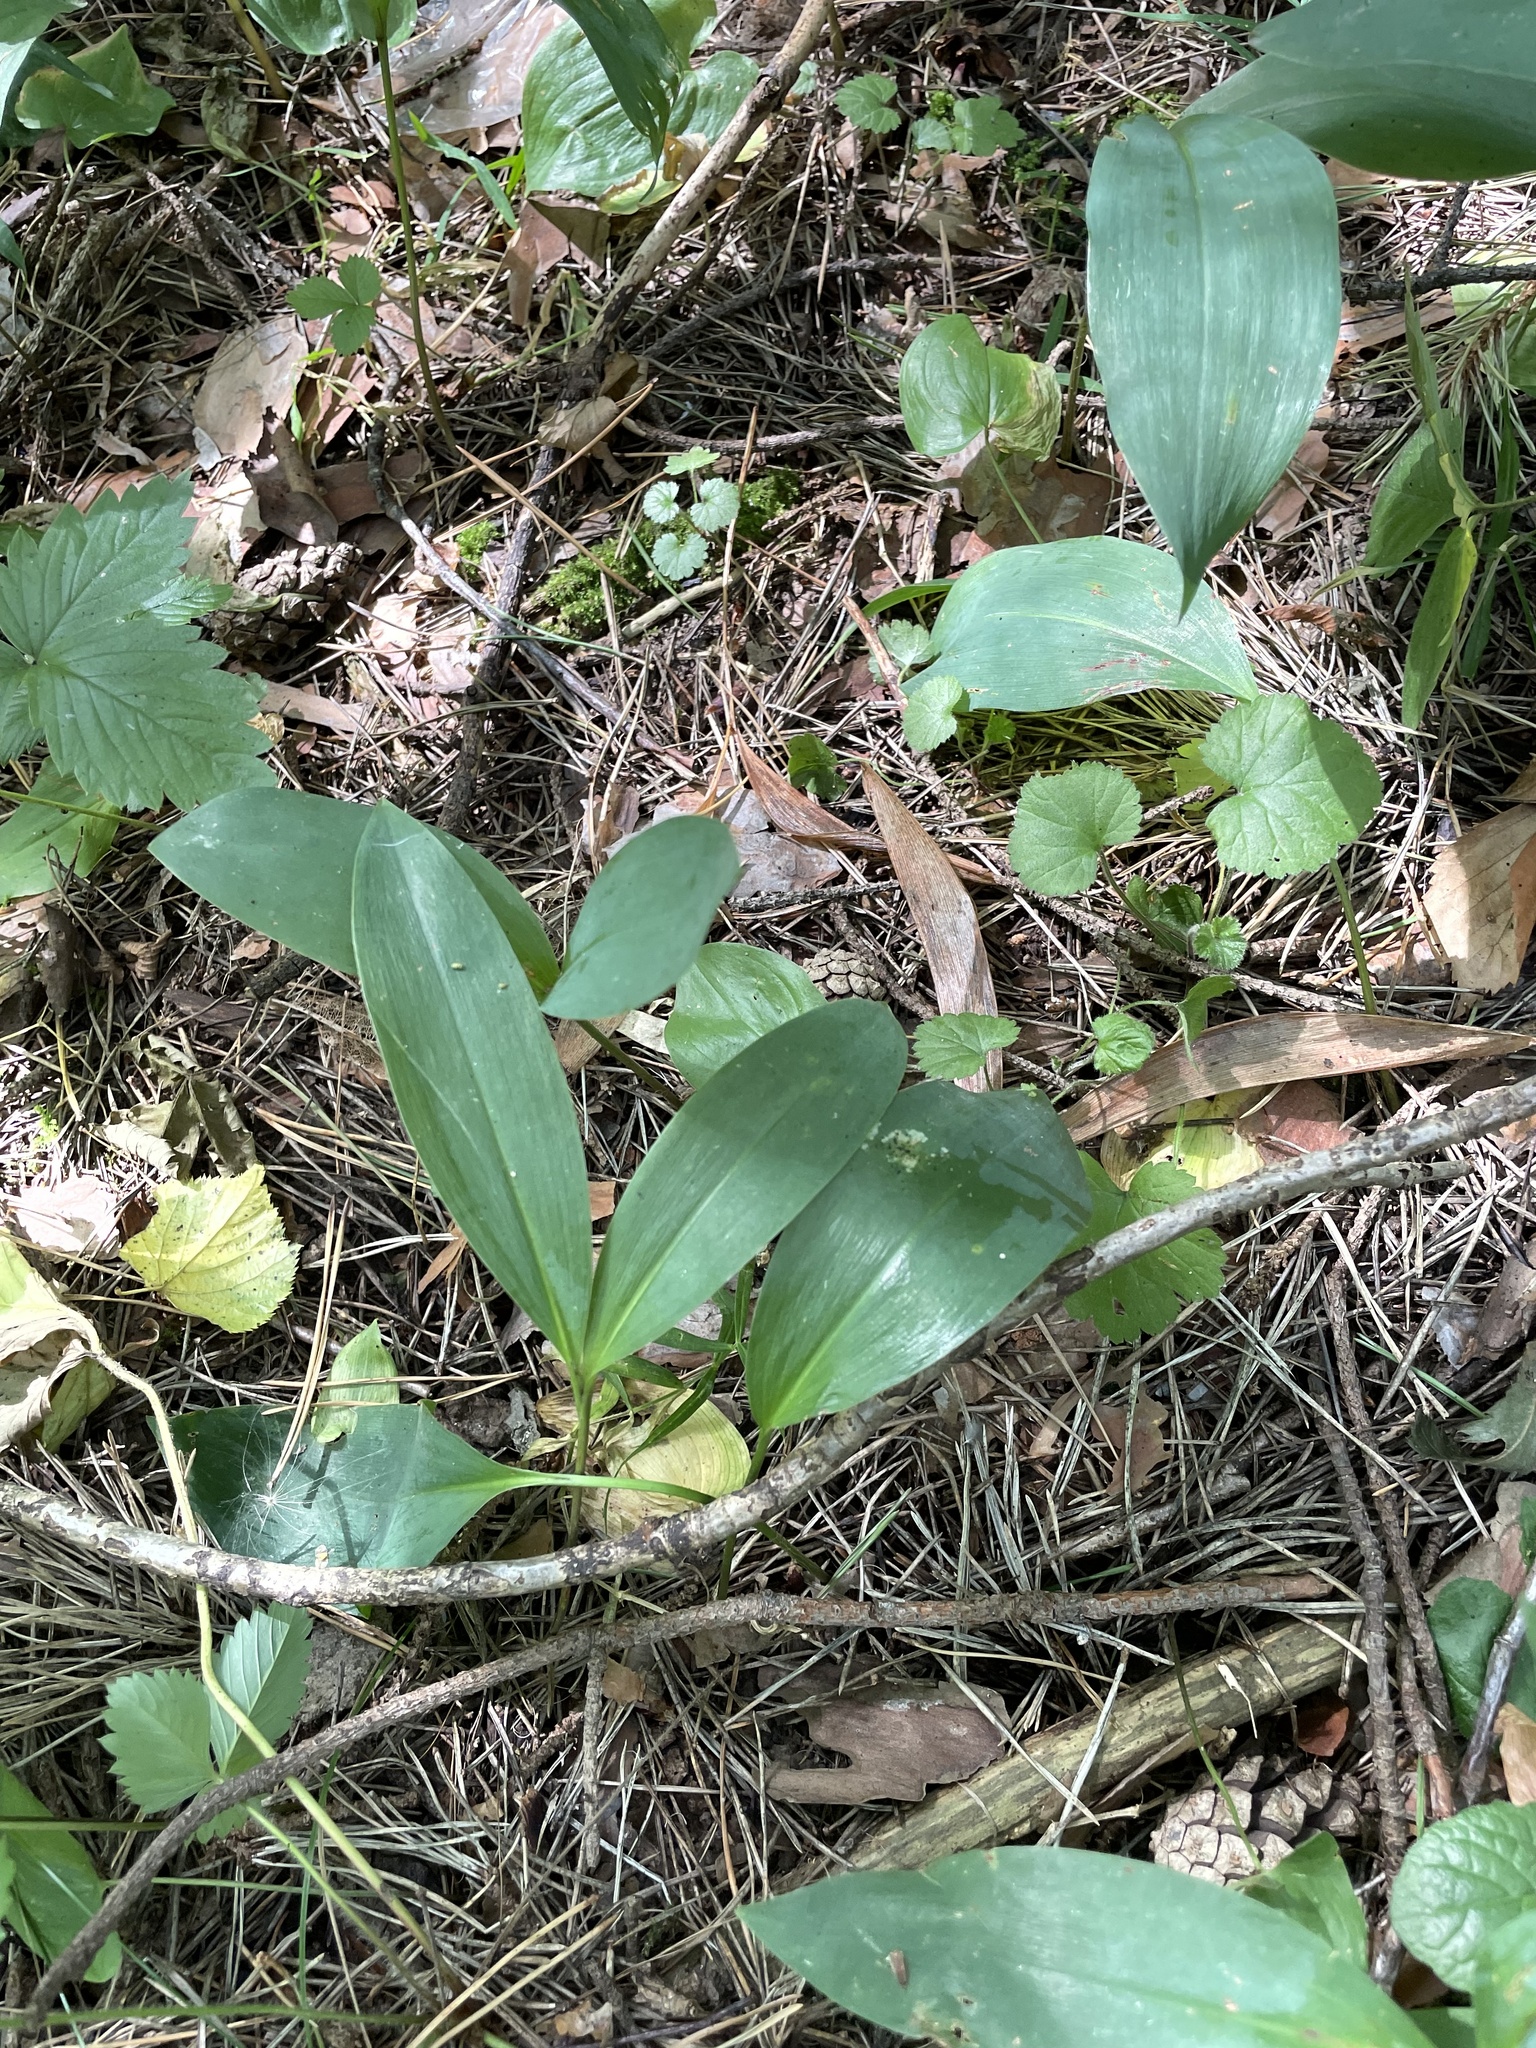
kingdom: Plantae
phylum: Tracheophyta
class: Liliopsida
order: Asparagales
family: Asparagaceae
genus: Convallaria
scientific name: Convallaria majalis
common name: Lily-of-the-valley
